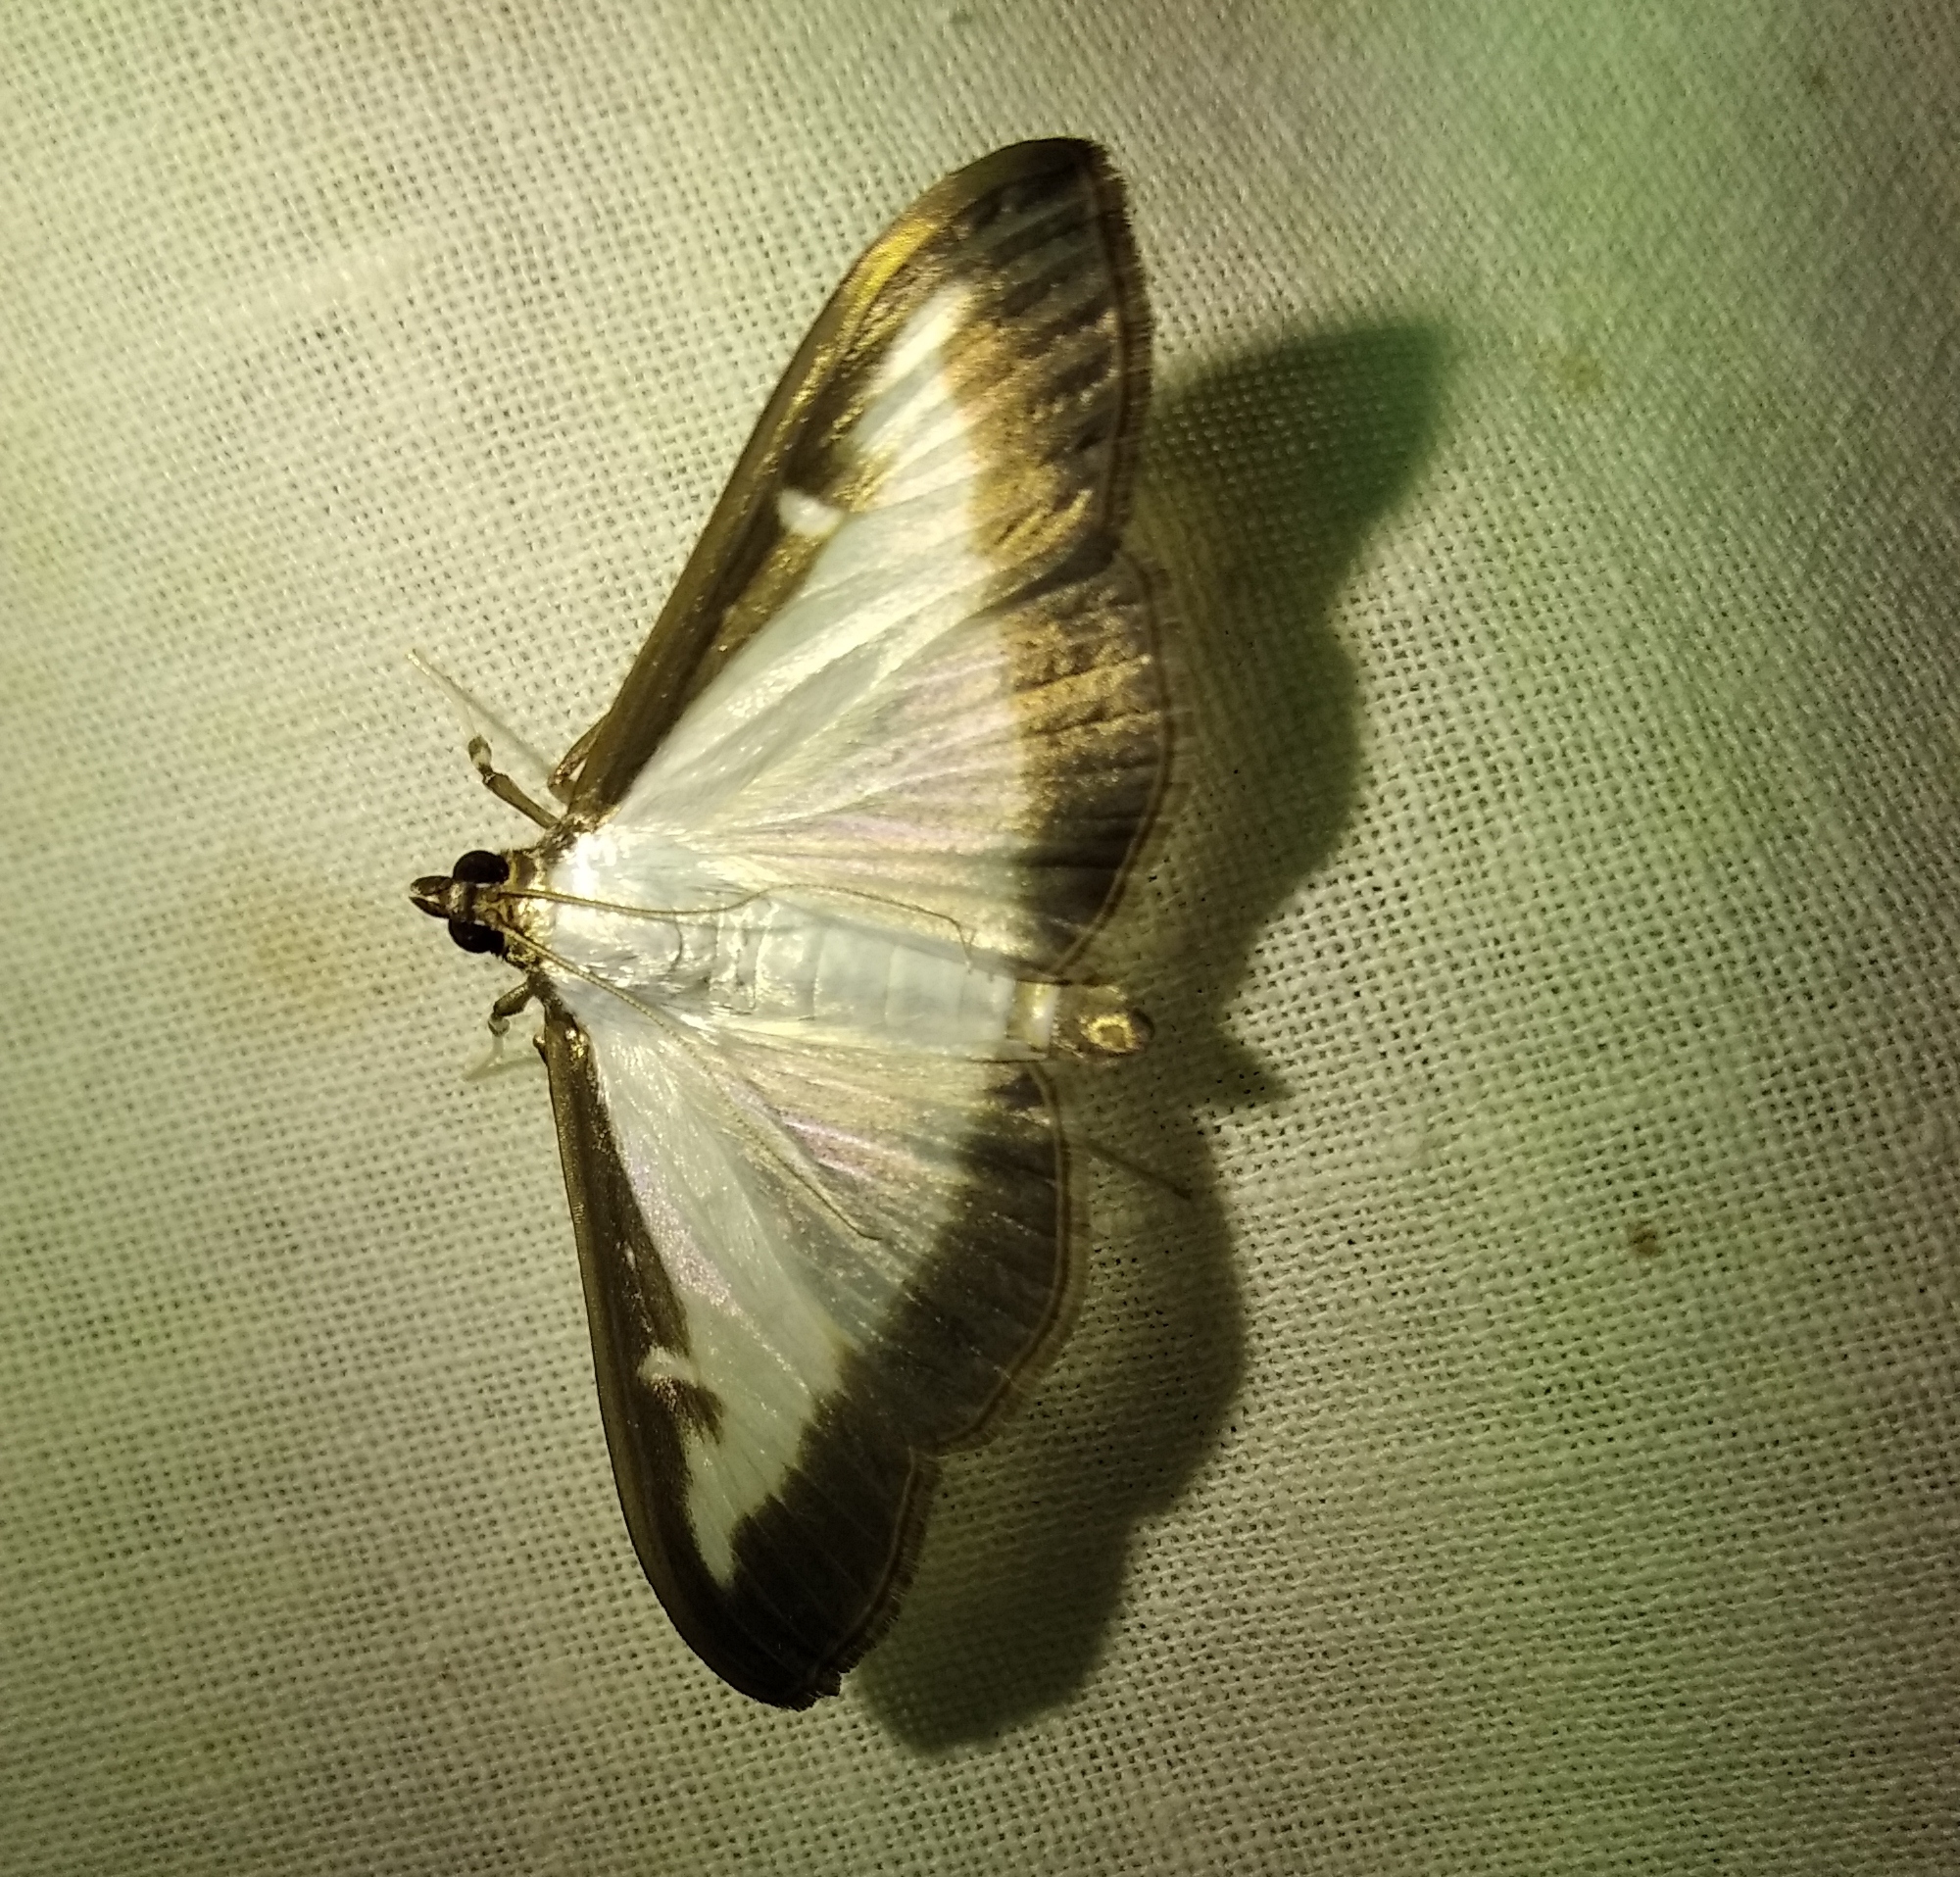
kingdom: Animalia
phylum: Arthropoda
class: Insecta
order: Lepidoptera
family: Crambidae
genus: Cydalima
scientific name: Cydalima perspectalis
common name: Box tree moth
